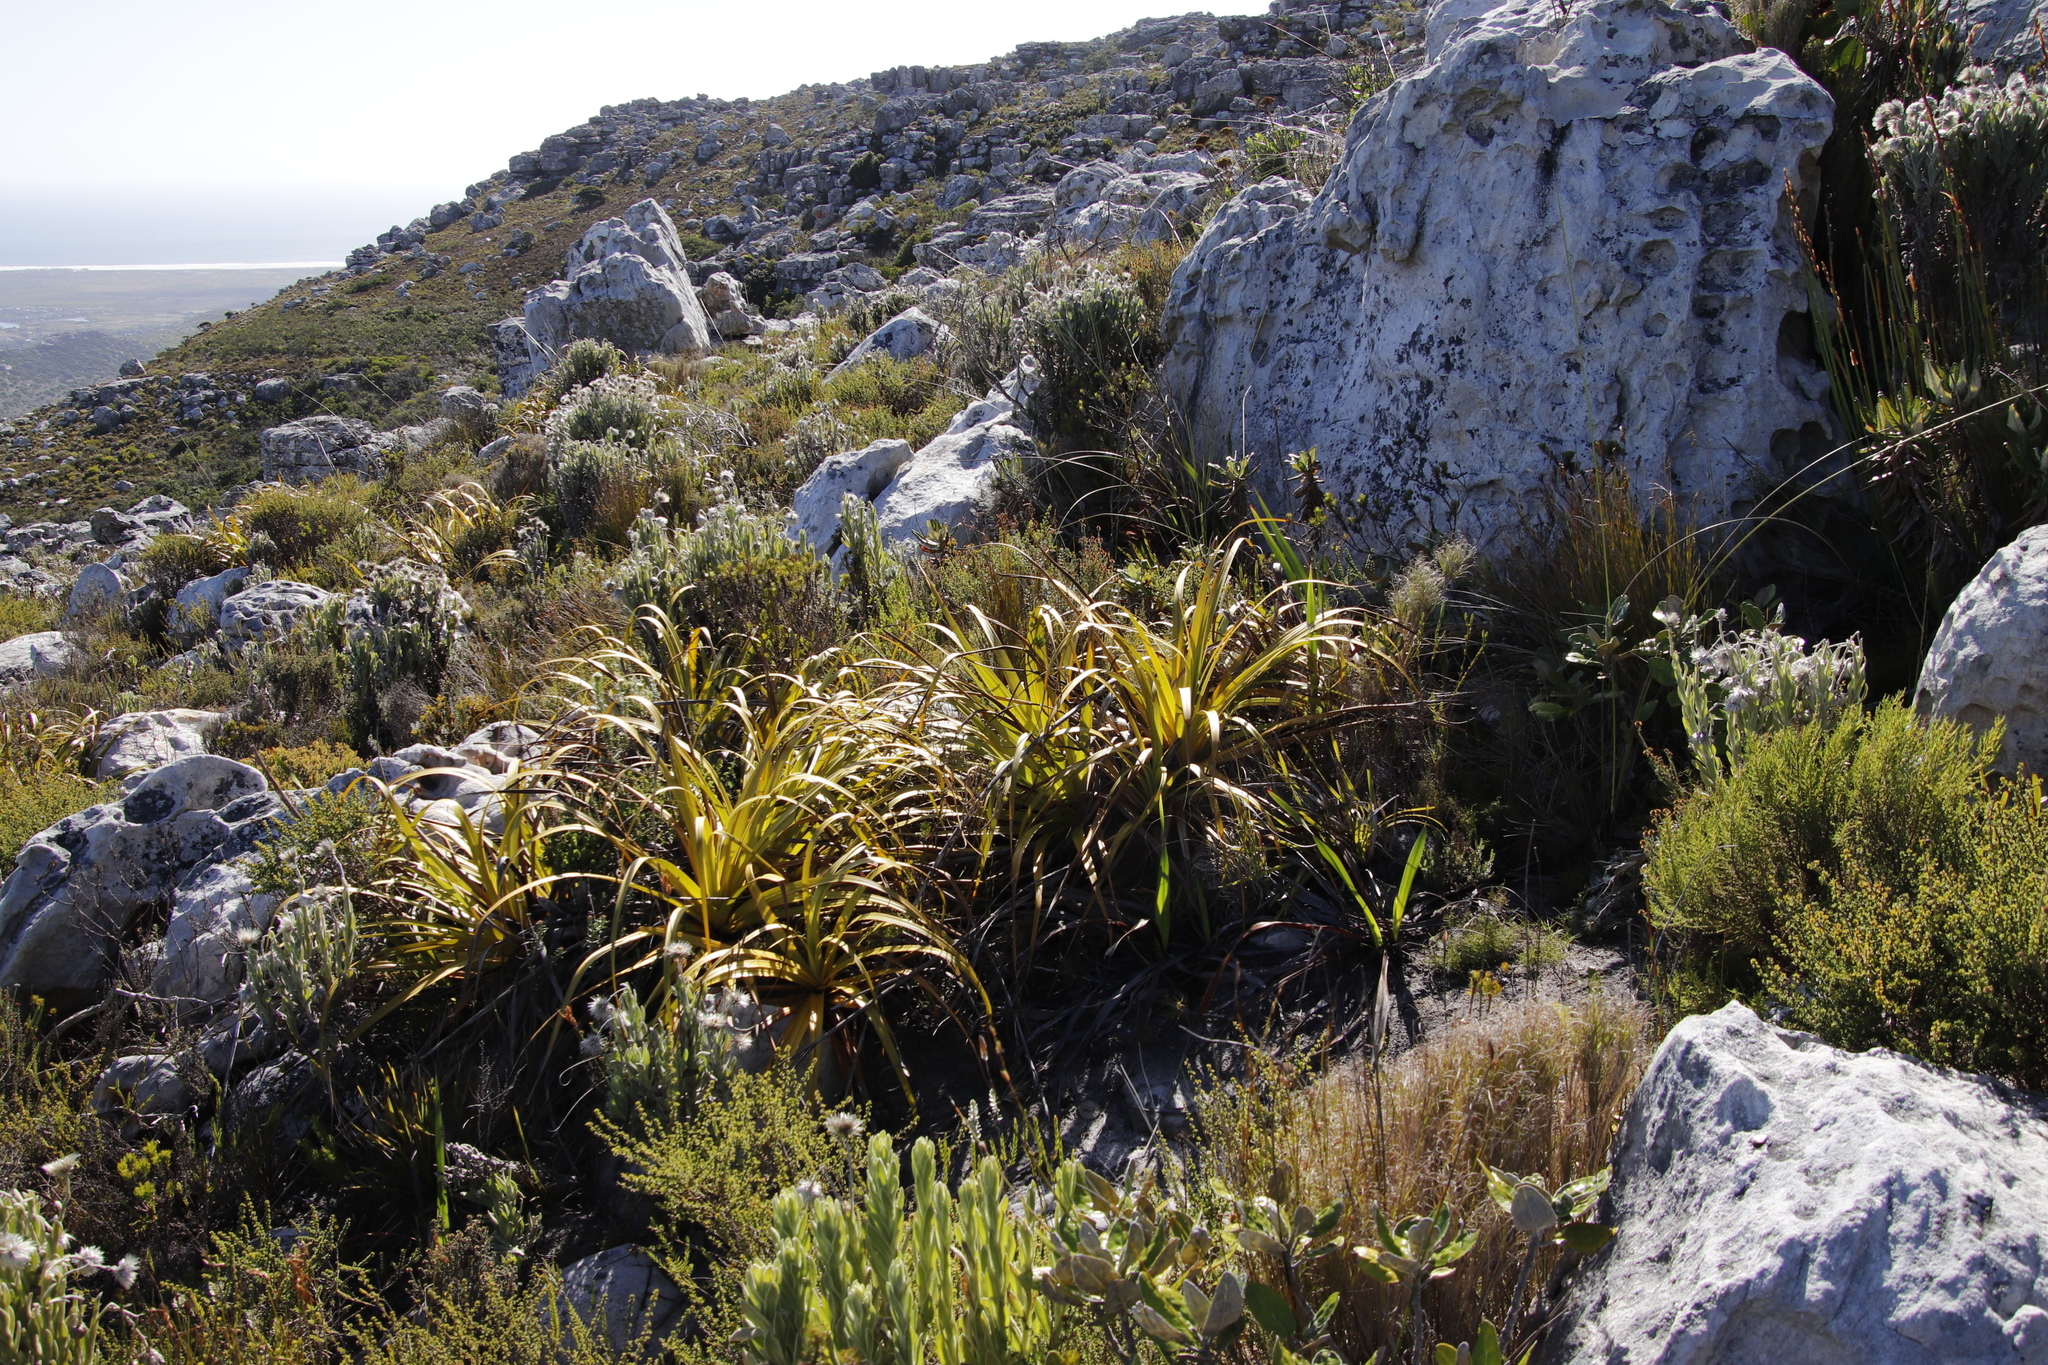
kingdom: Plantae
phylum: Tracheophyta
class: Liliopsida
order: Poales
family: Cyperaceae
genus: Tetraria
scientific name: Tetraria thermalis
